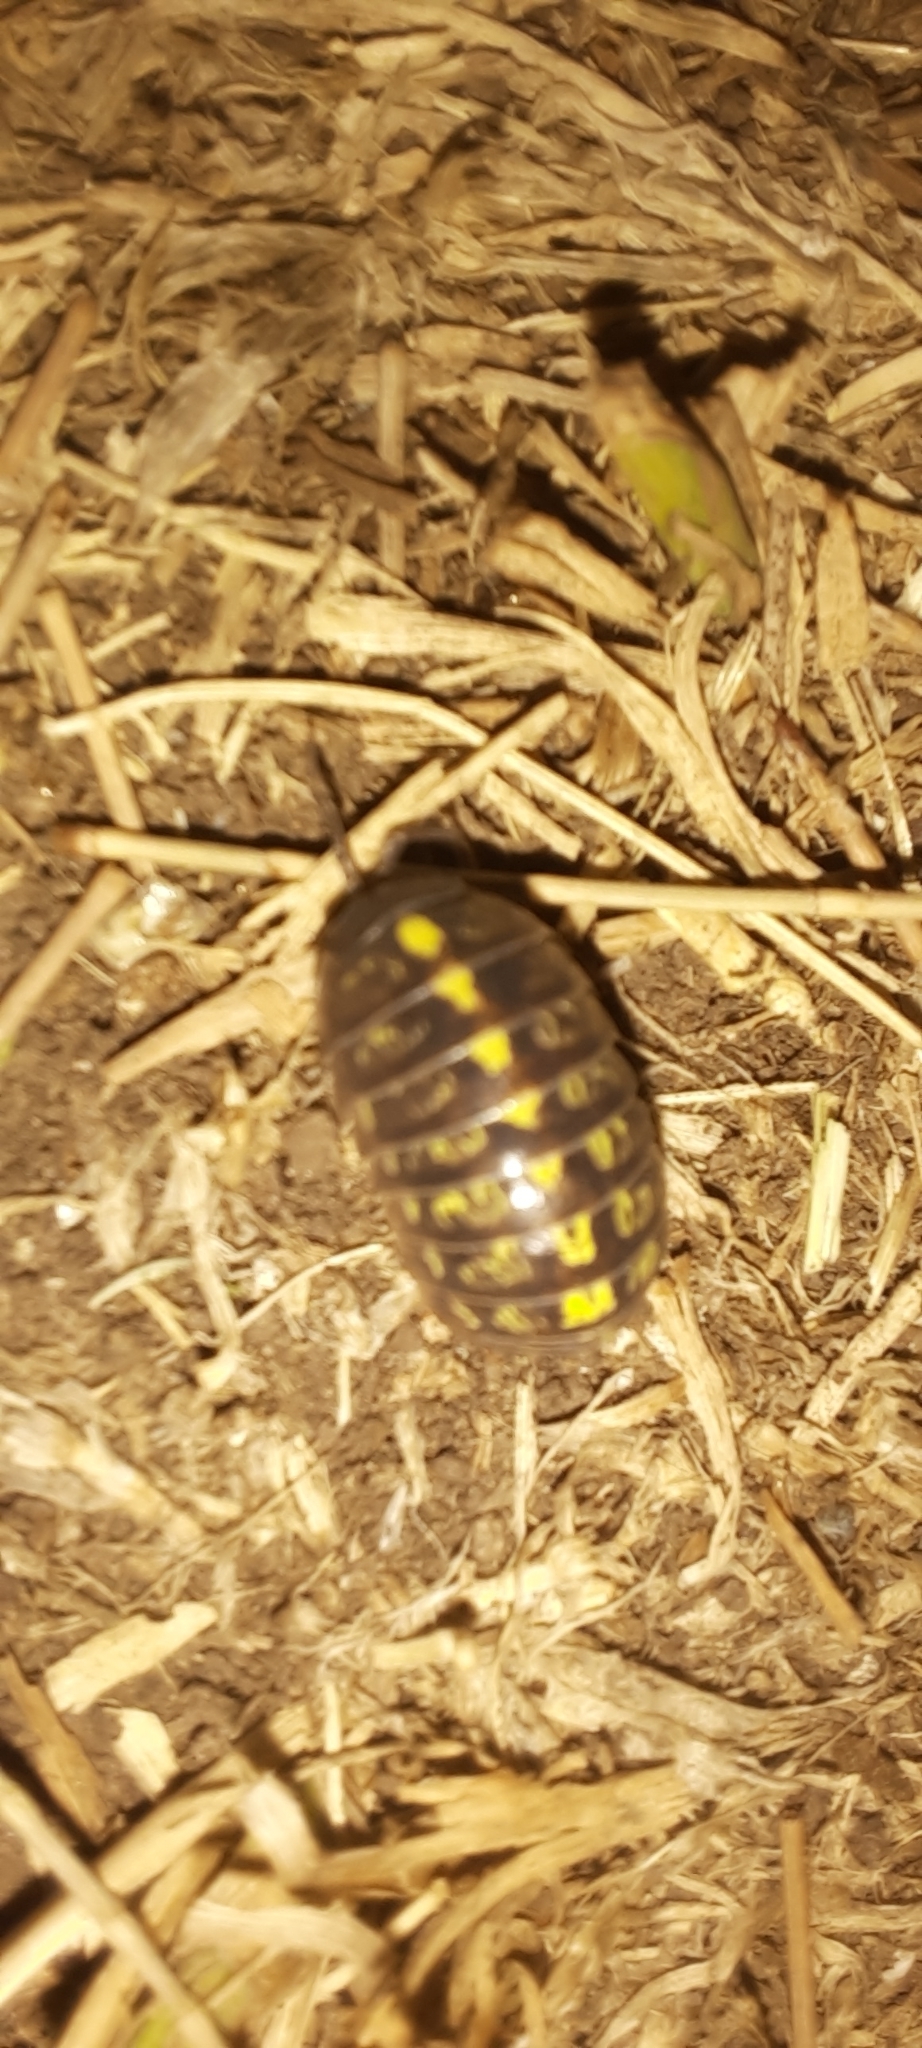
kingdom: Animalia
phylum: Arthropoda
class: Malacostraca
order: Isopoda
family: Armadillidiidae
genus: Armadillidium
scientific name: Armadillidium vulgare
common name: Common pill woodlouse
